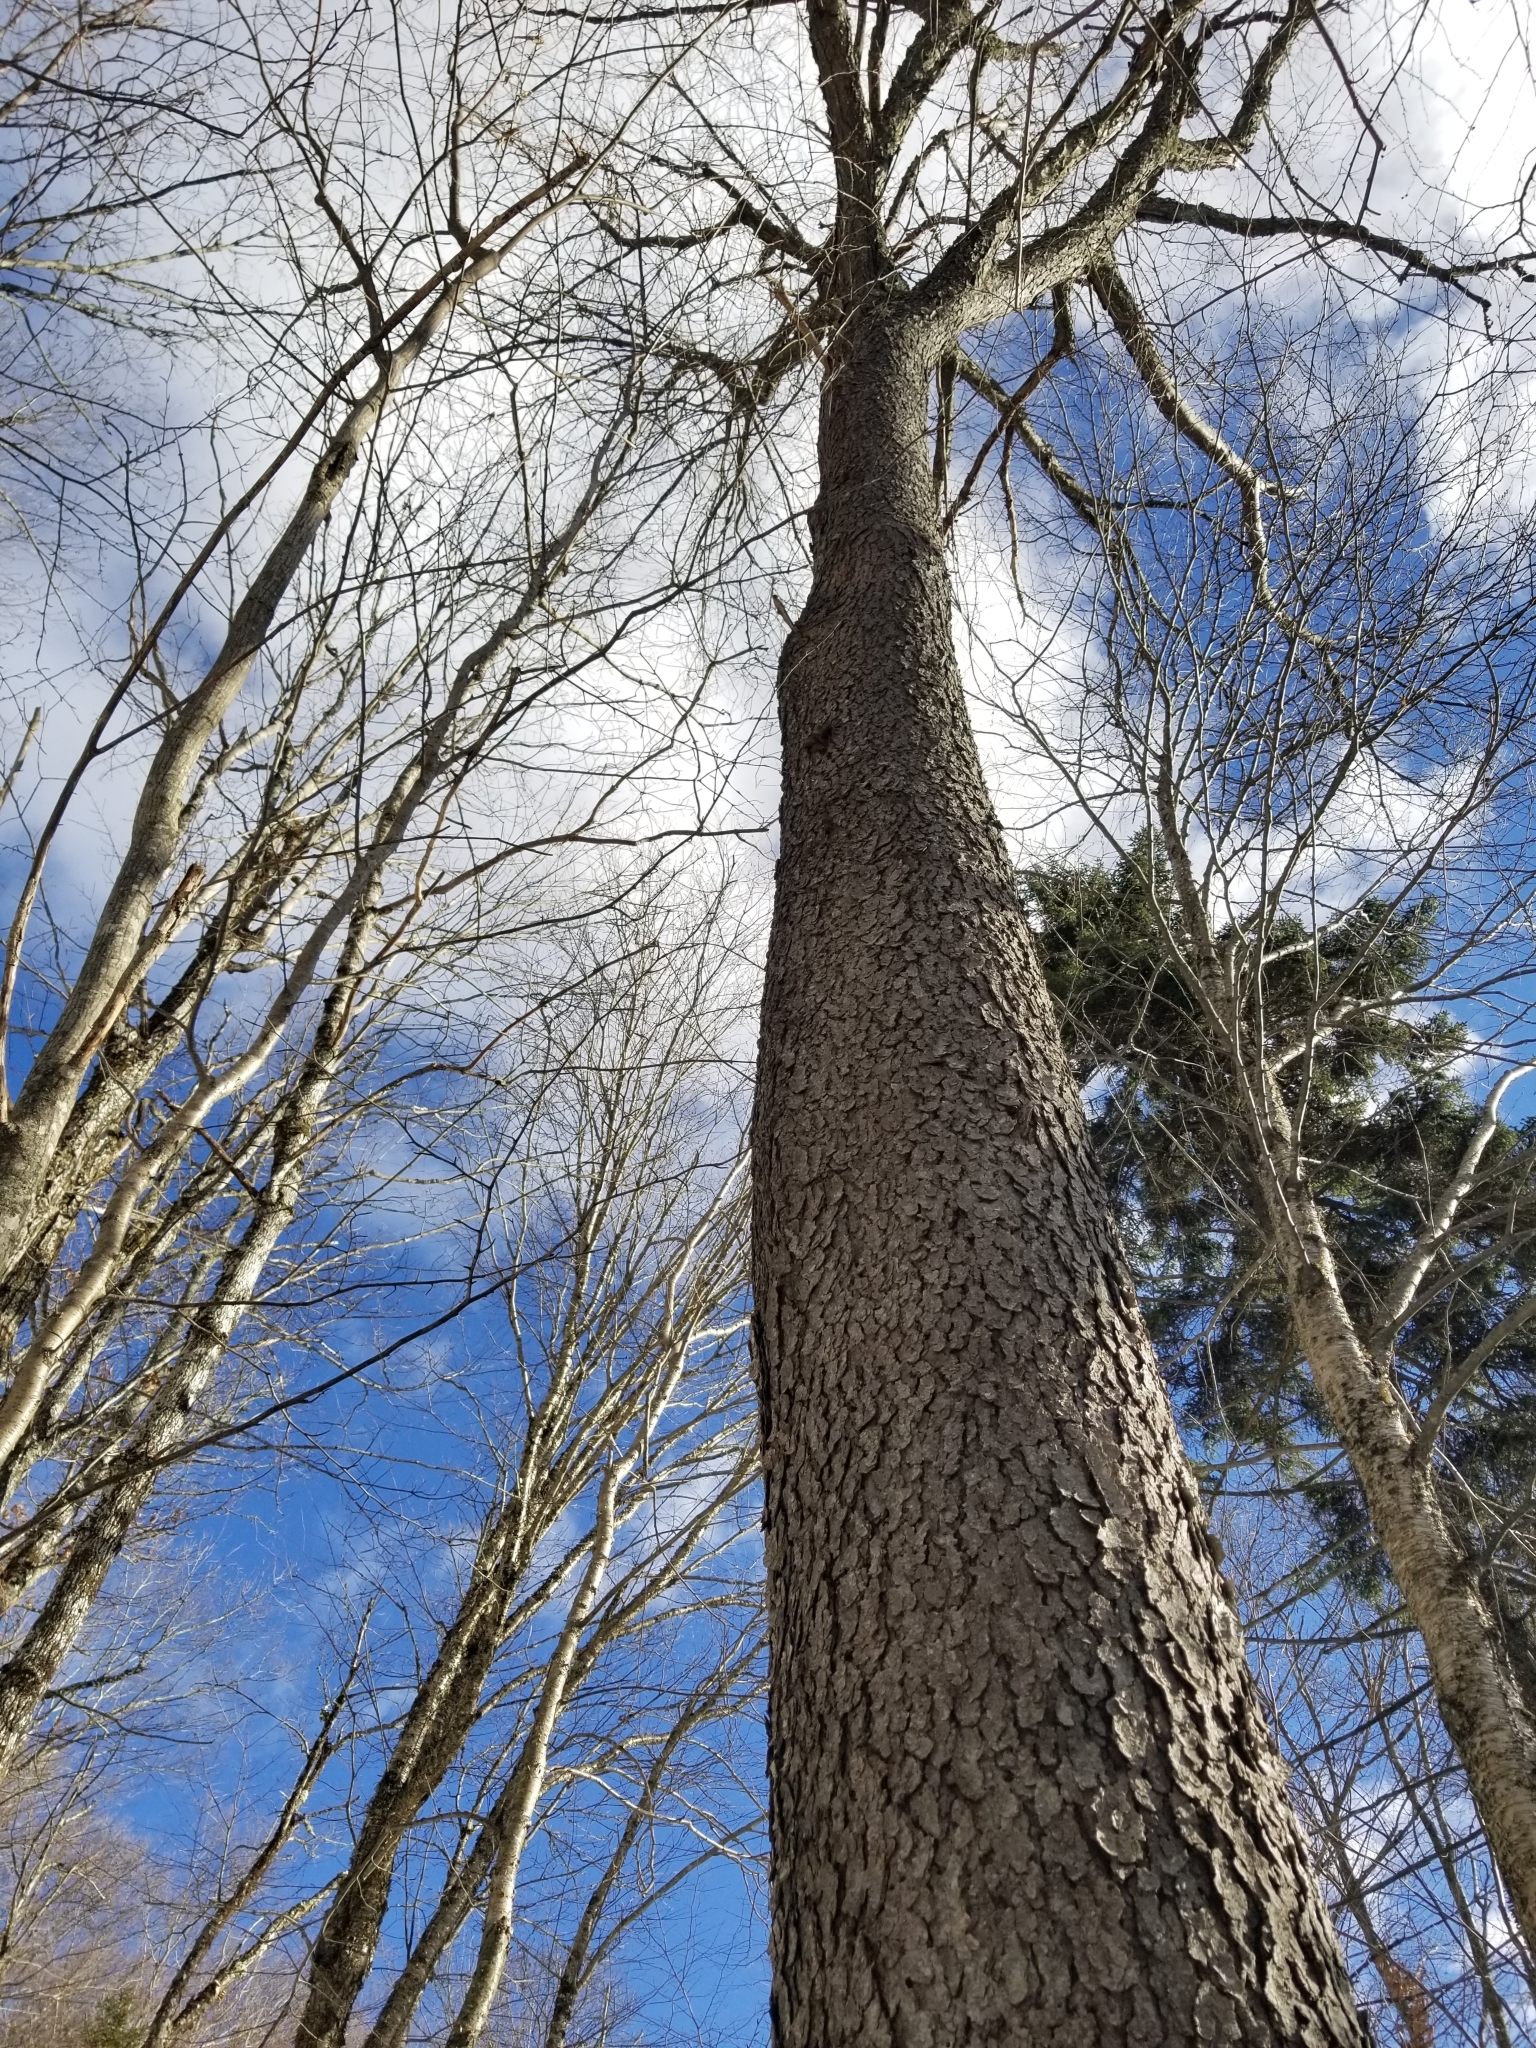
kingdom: Plantae
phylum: Tracheophyta
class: Magnoliopsida
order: Rosales
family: Rosaceae
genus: Prunus
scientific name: Prunus serotina
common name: Black cherry
